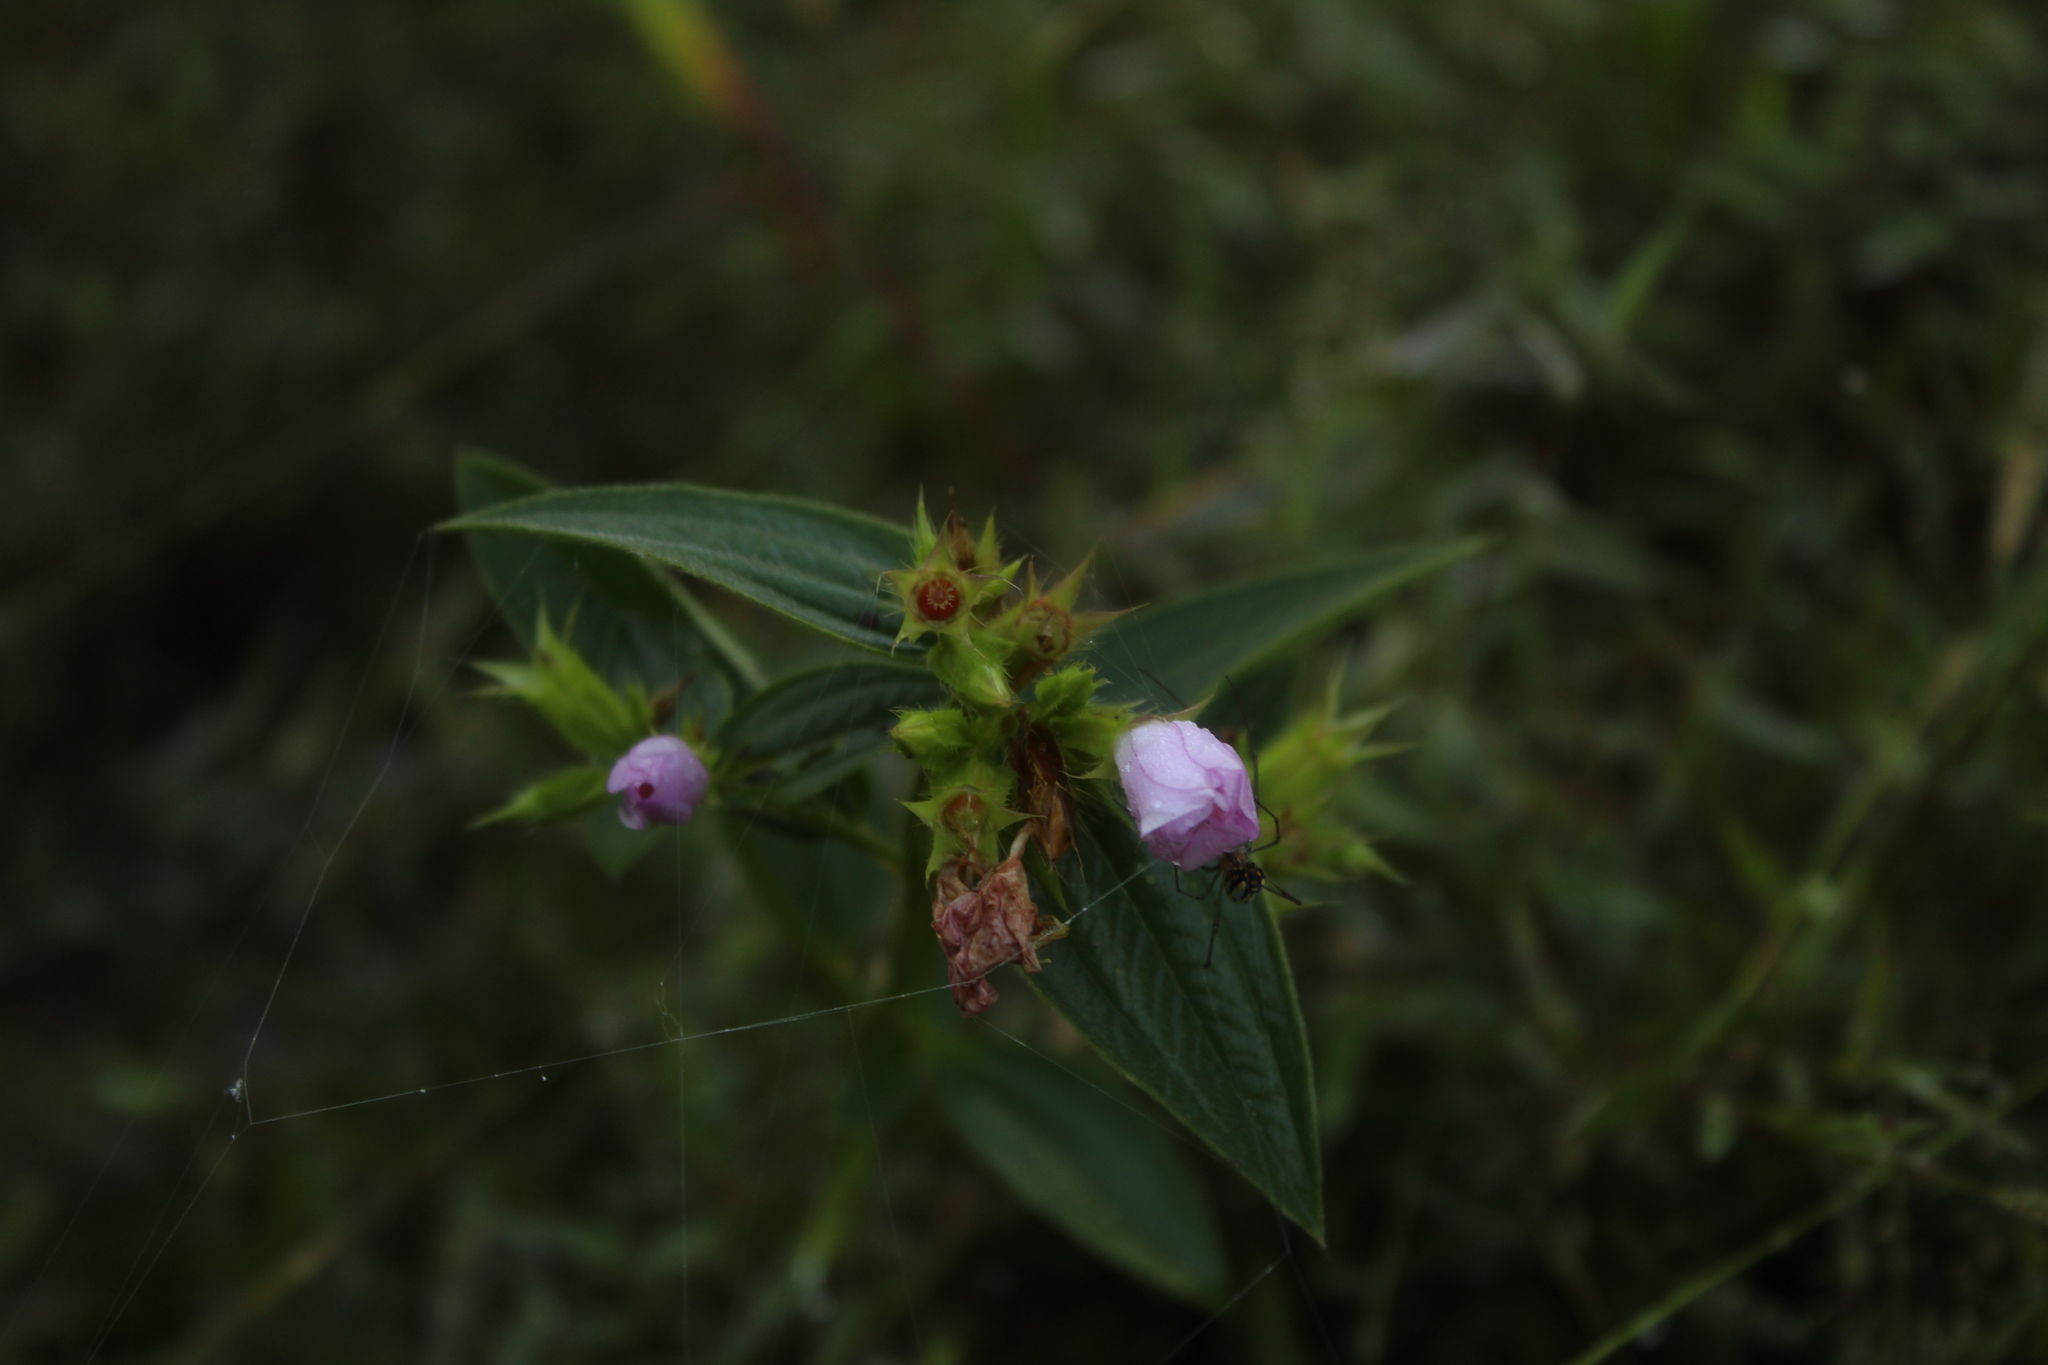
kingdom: Plantae
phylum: Tracheophyta
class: Magnoliopsida
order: Myrtales
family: Melastomataceae
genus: Pterogastra
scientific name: Pterogastra divaricata
